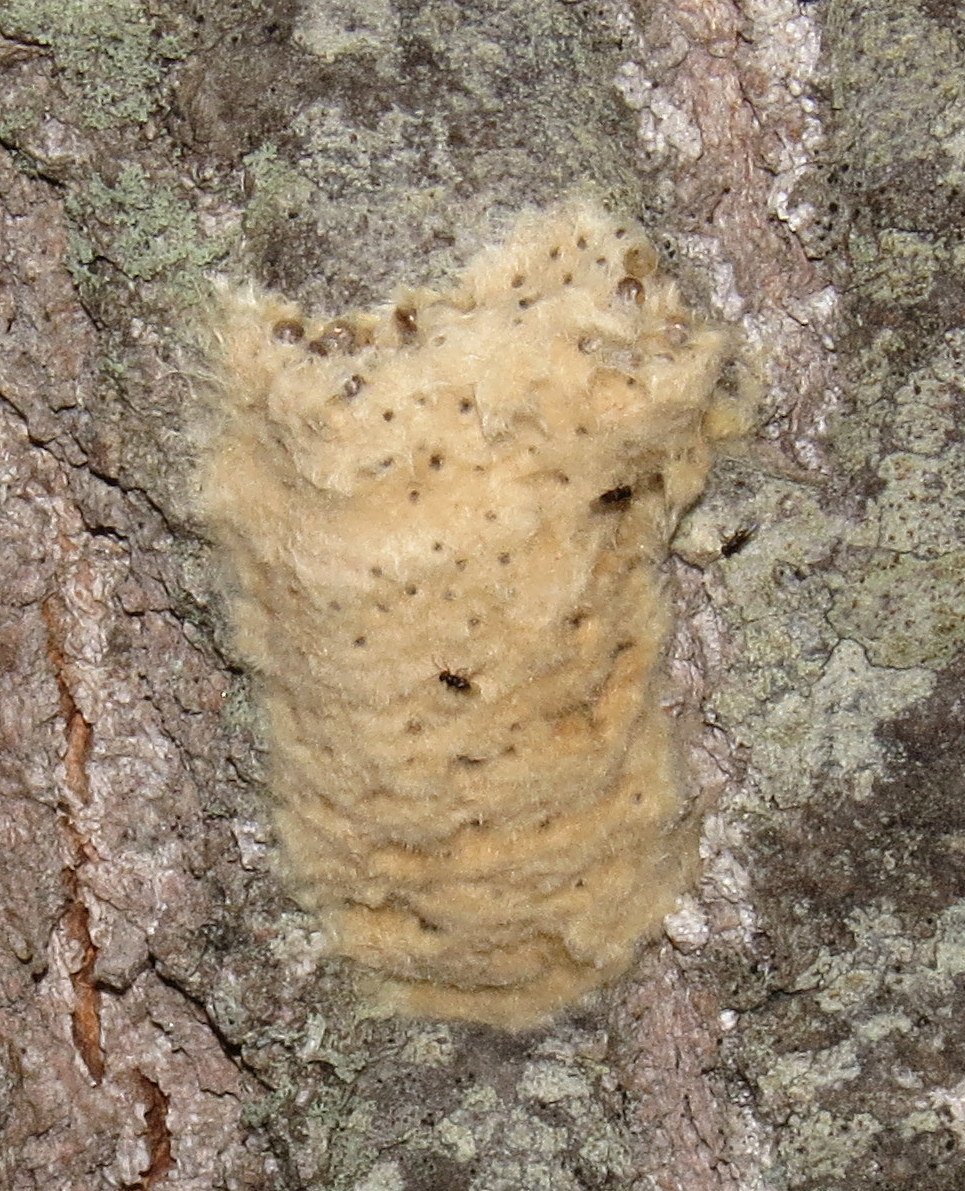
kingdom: Animalia
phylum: Arthropoda
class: Insecta
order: Lepidoptera
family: Erebidae
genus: Lymantria
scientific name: Lymantria dispar
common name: Gypsy moth
